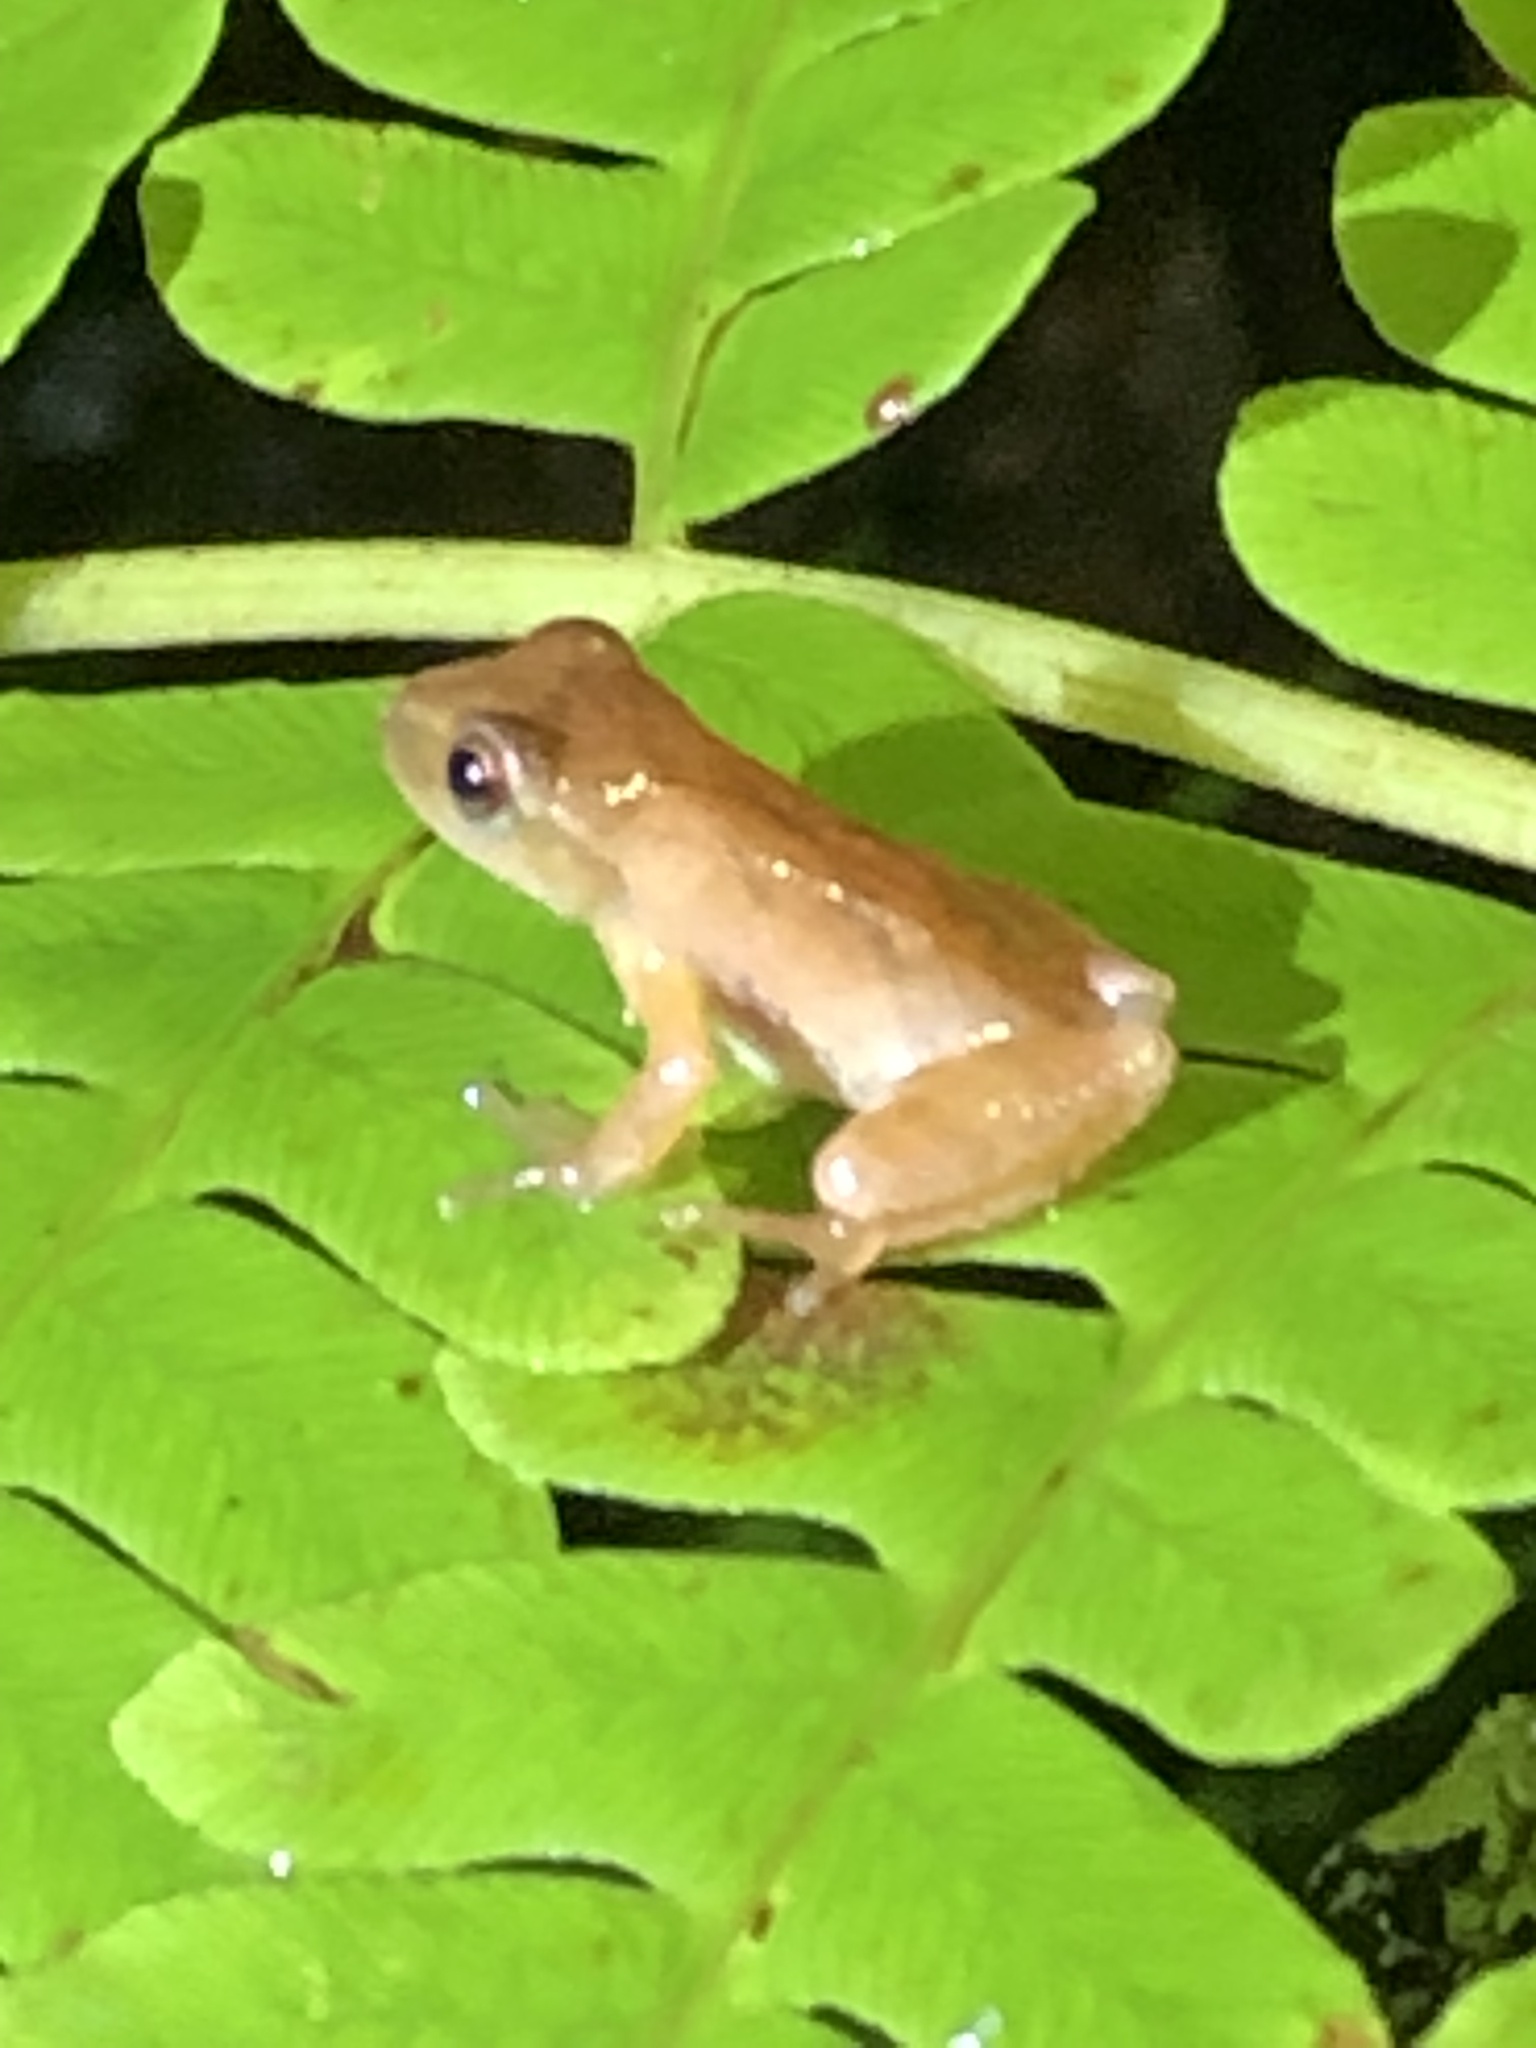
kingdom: Animalia
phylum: Chordata
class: Amphibia
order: Anura
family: Hylidae
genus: Pseudacris
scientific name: Pseudacris crucifer
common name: Spring peeper
